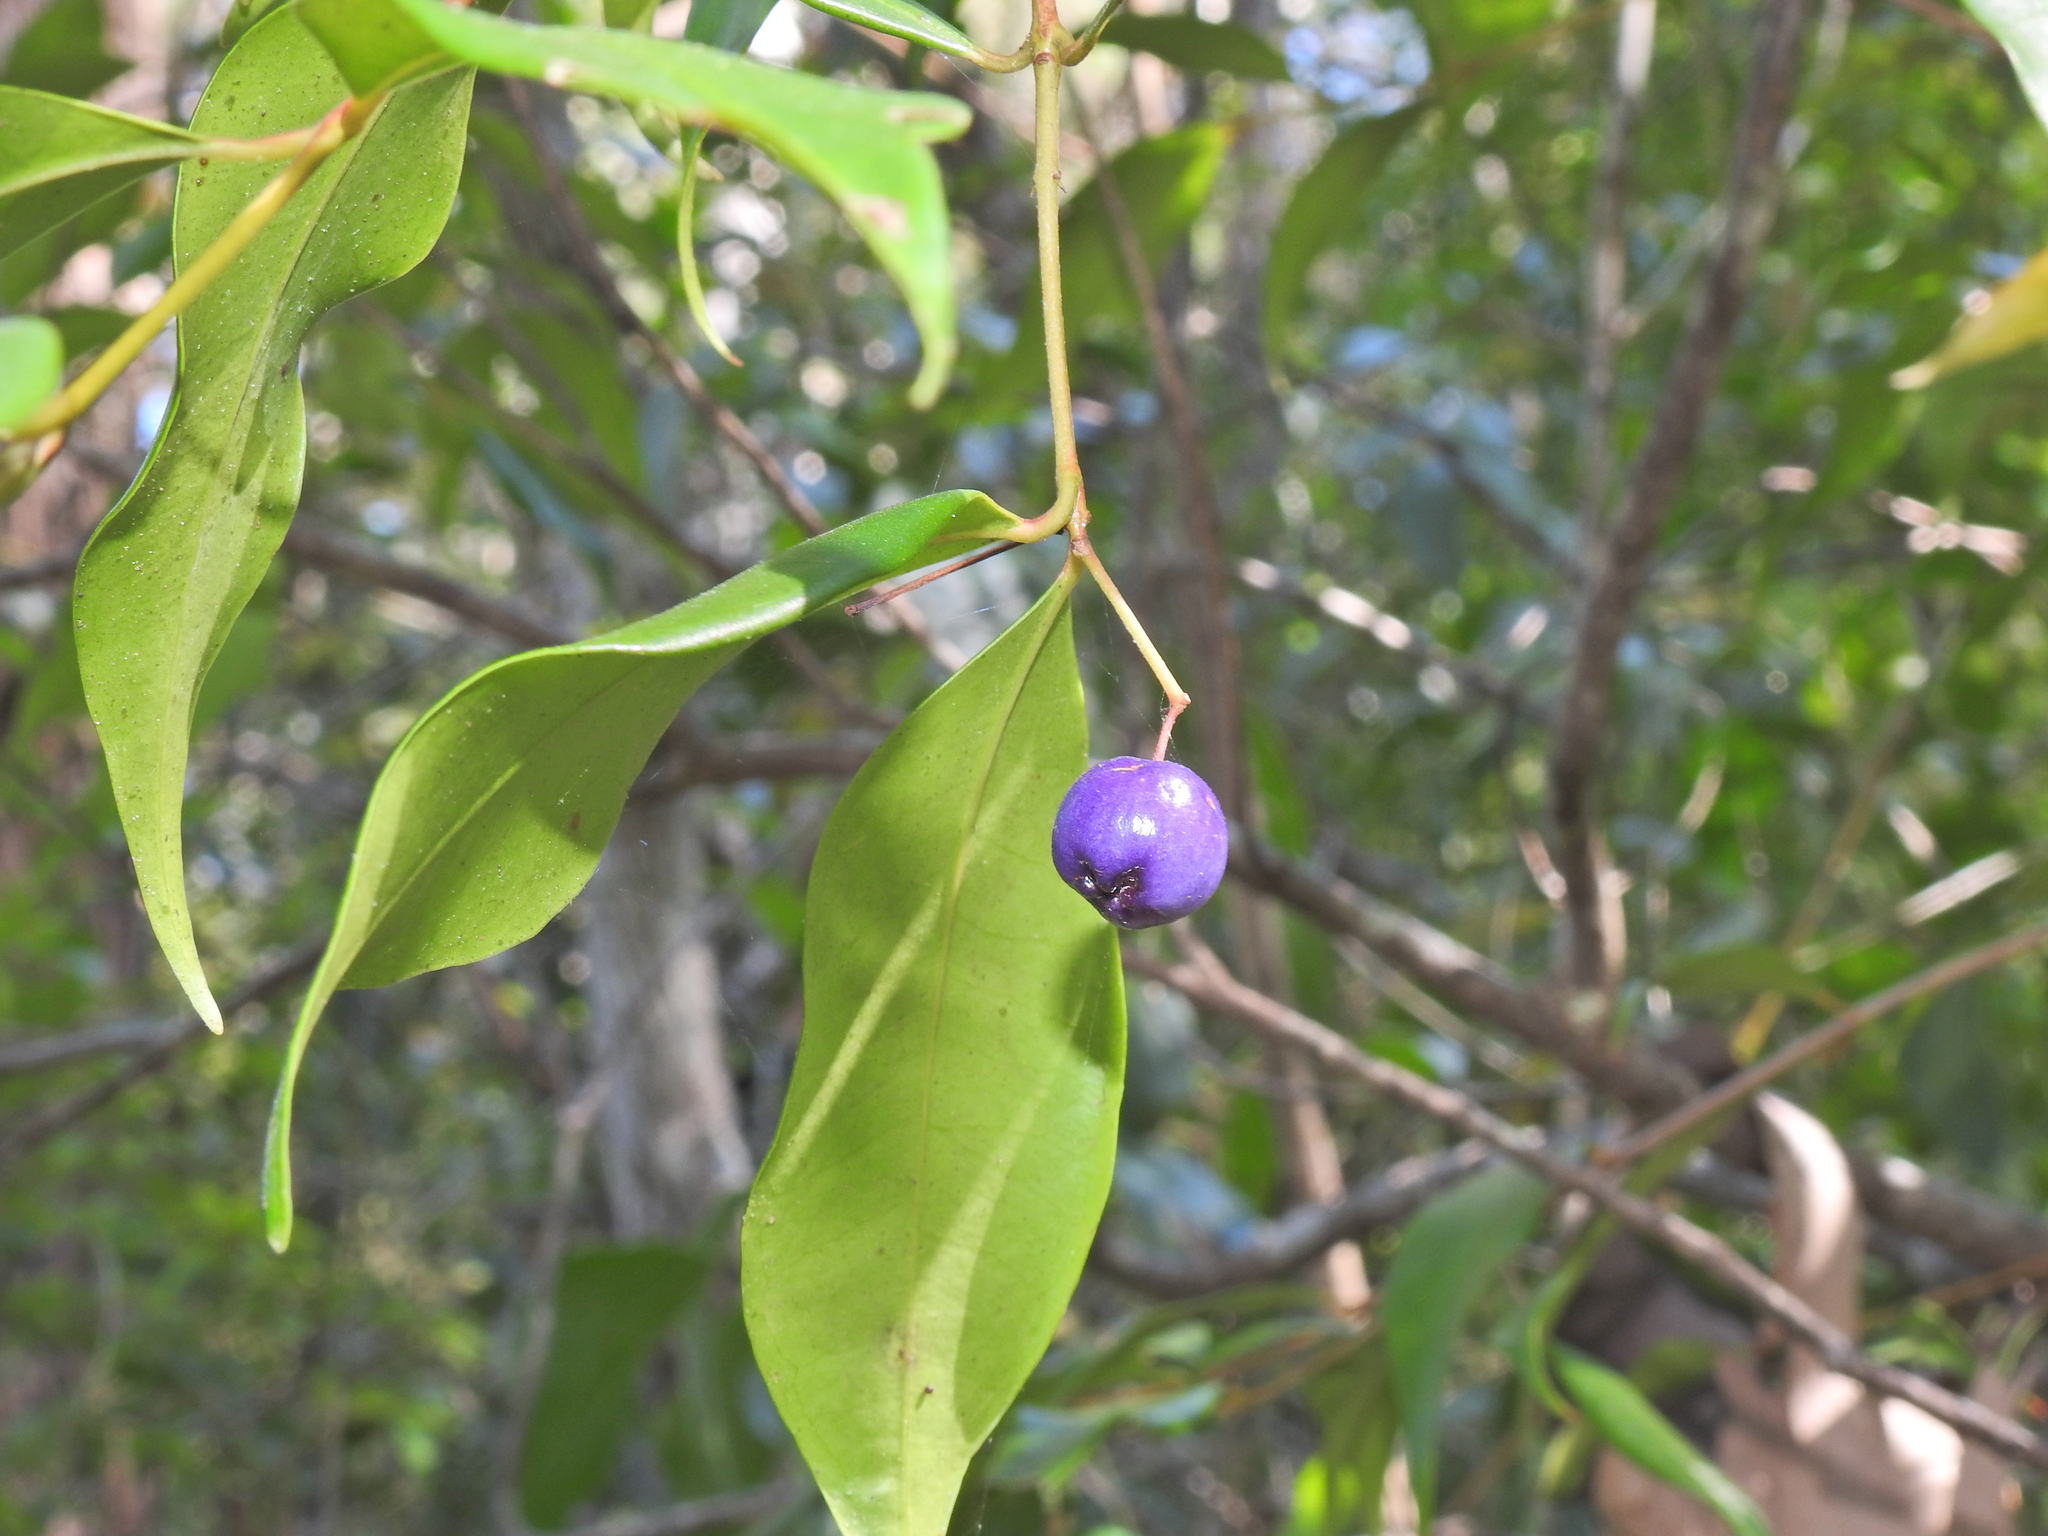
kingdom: Plantae
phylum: Tracheophyta
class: Magnoliopsida
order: Myrtales
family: Myrtaceae
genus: Syzygium
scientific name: Syzygium oleosum
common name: Oily satin-ash
